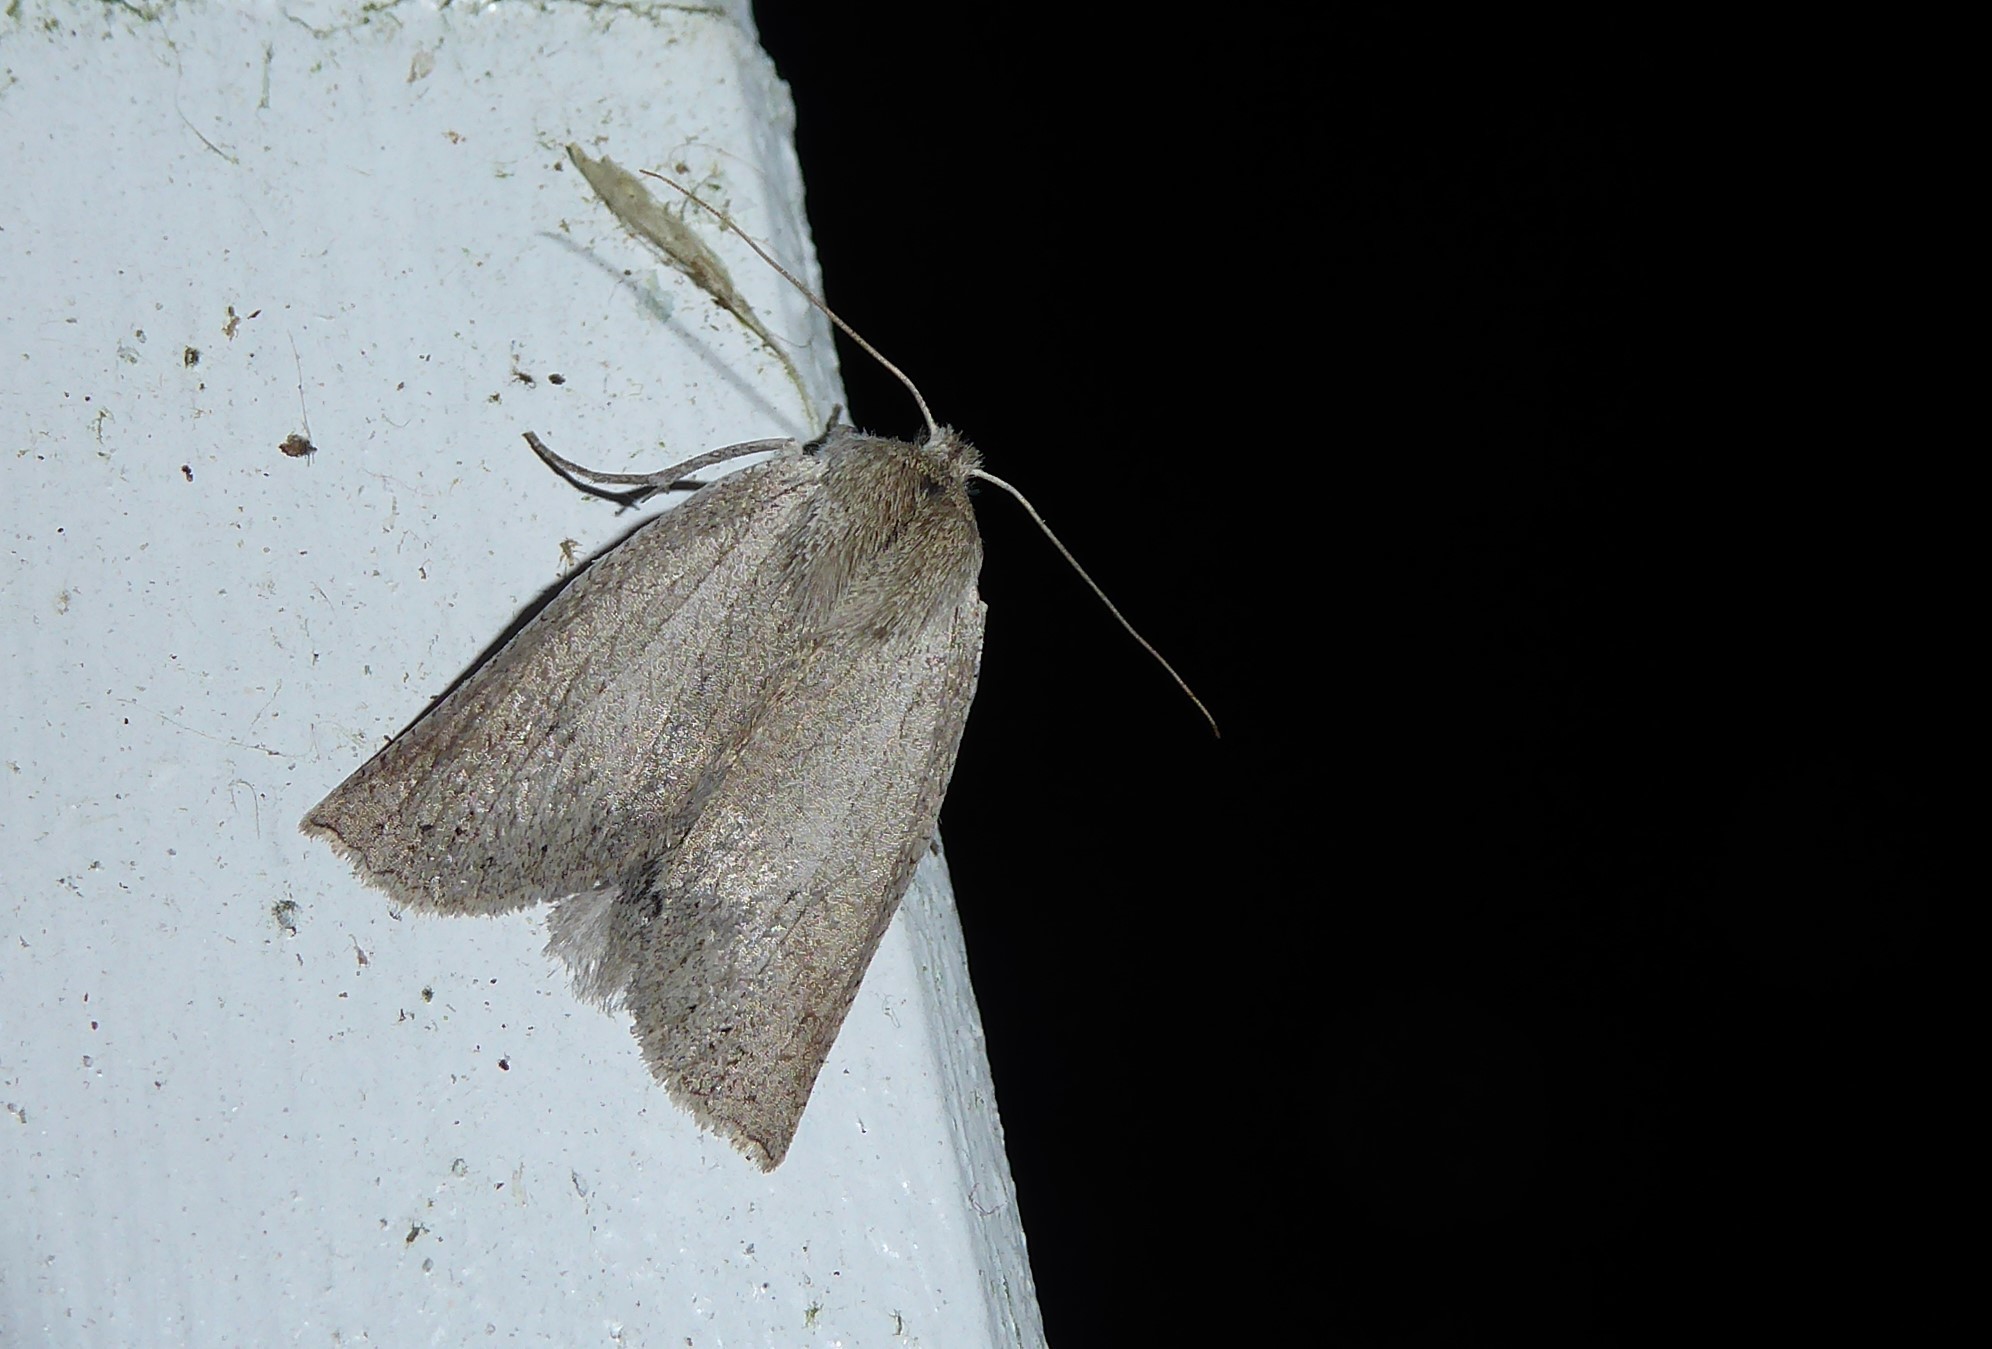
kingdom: Animalia
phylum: Arthropoda
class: Insecta
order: Lepidoptera
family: Geometridae
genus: Declana
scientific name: Declana leptomera
